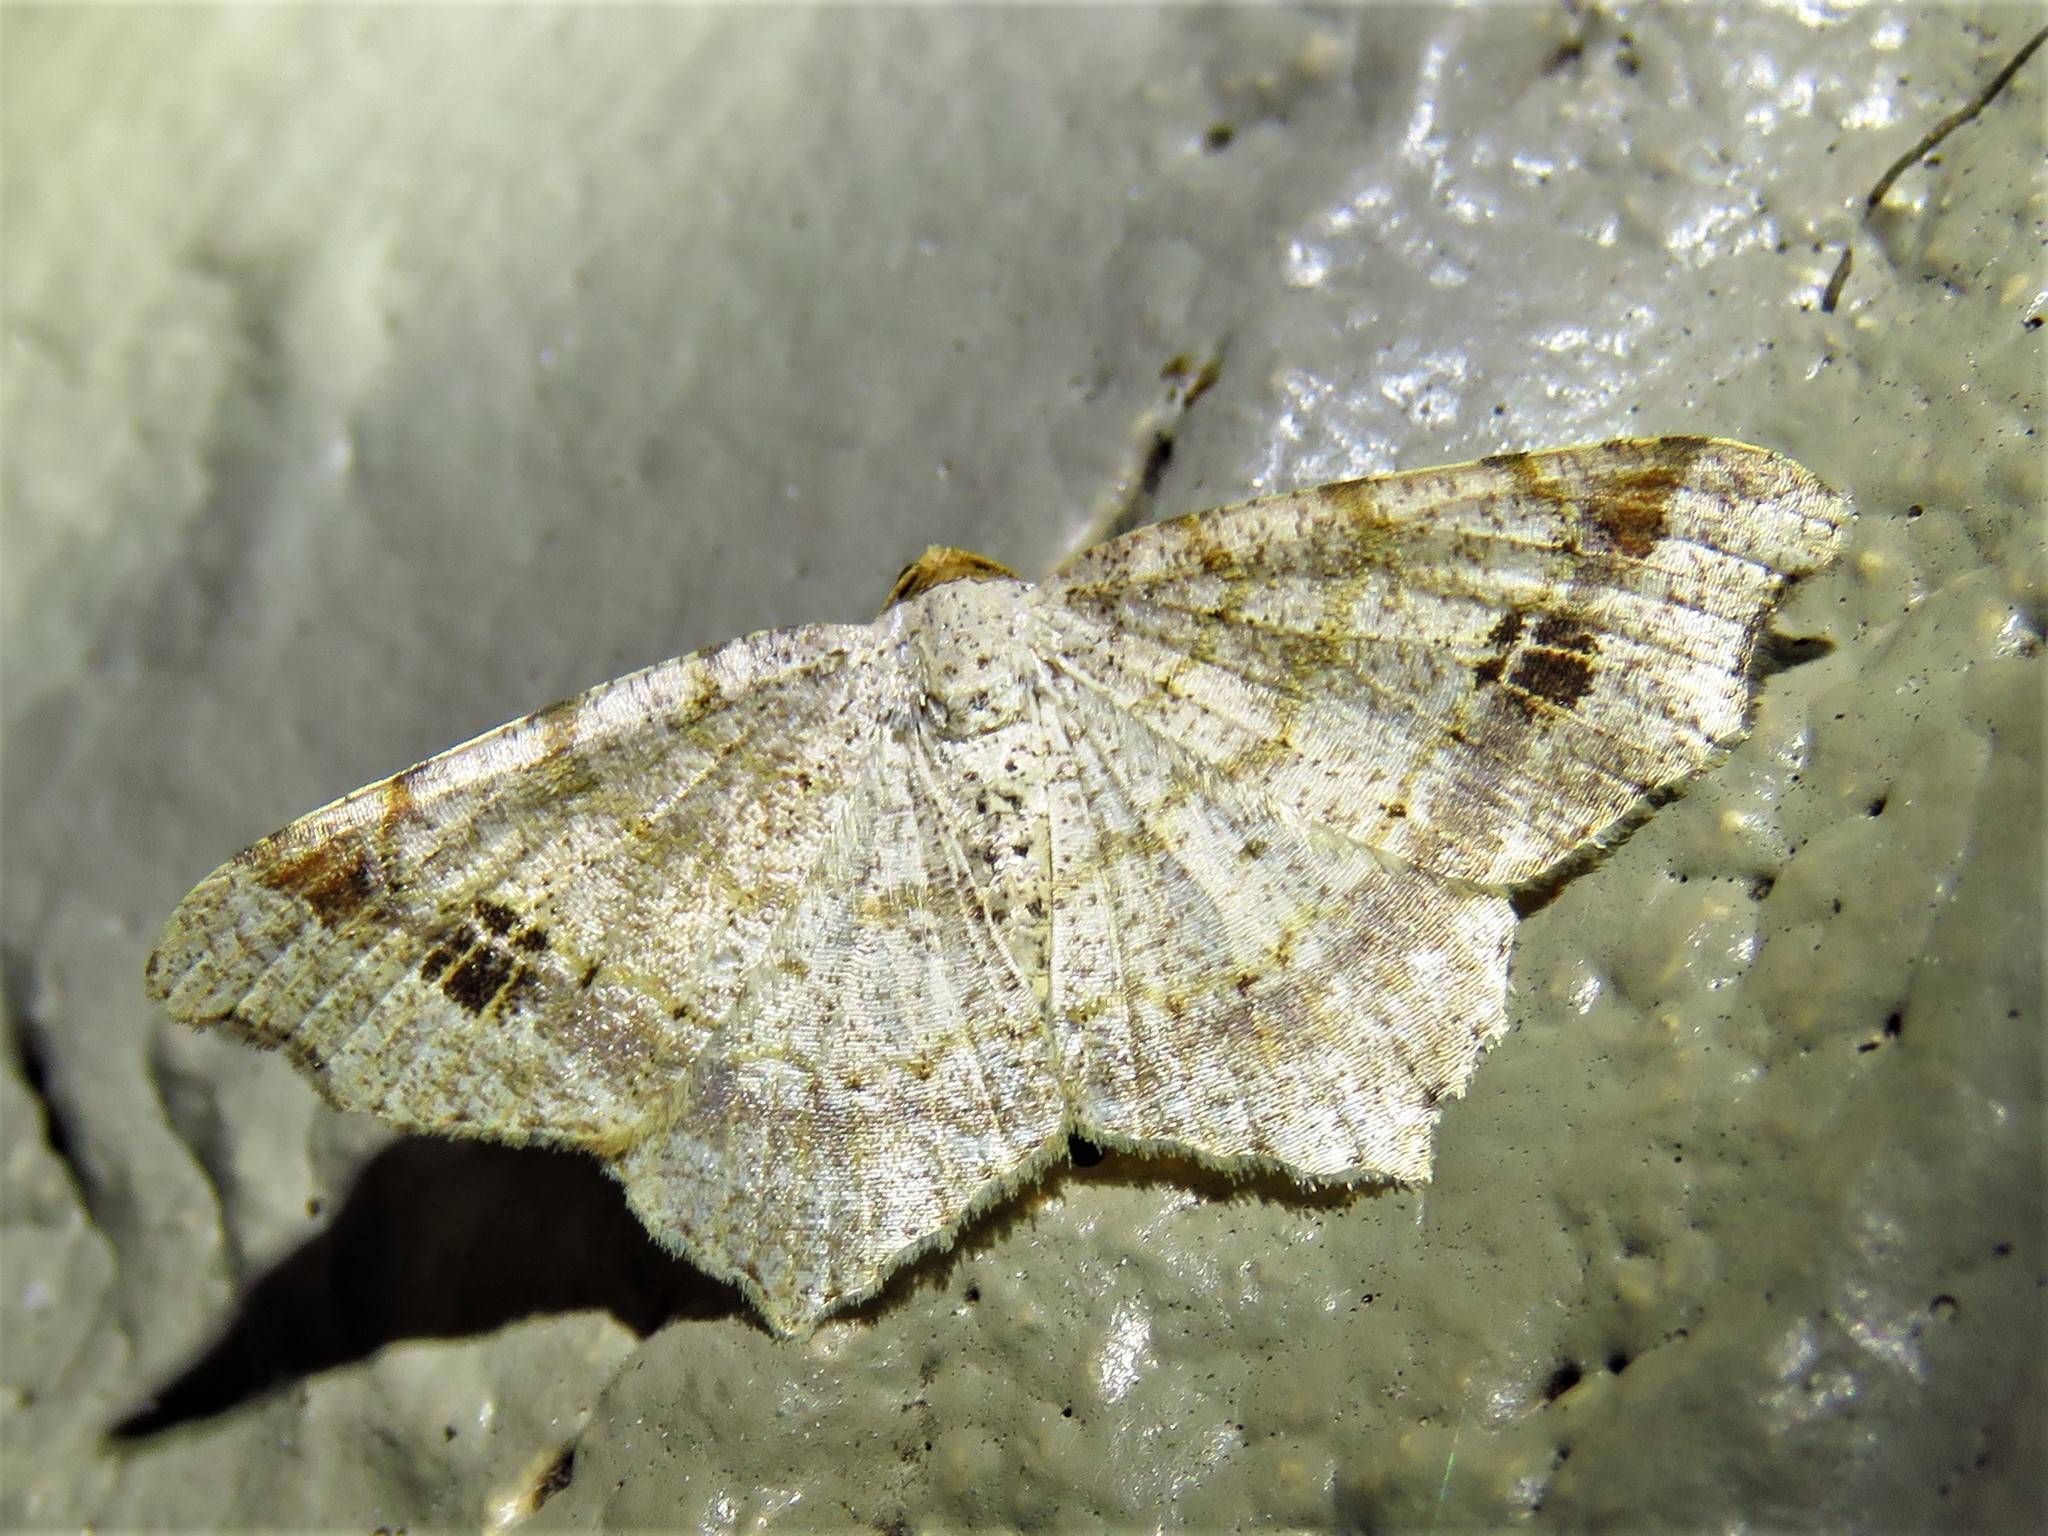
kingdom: Animalia
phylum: Arthropoda
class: Insecta
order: Lepidoptera
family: Geometridae
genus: Macaria
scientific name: Macaria aemulataria
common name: Common angle
